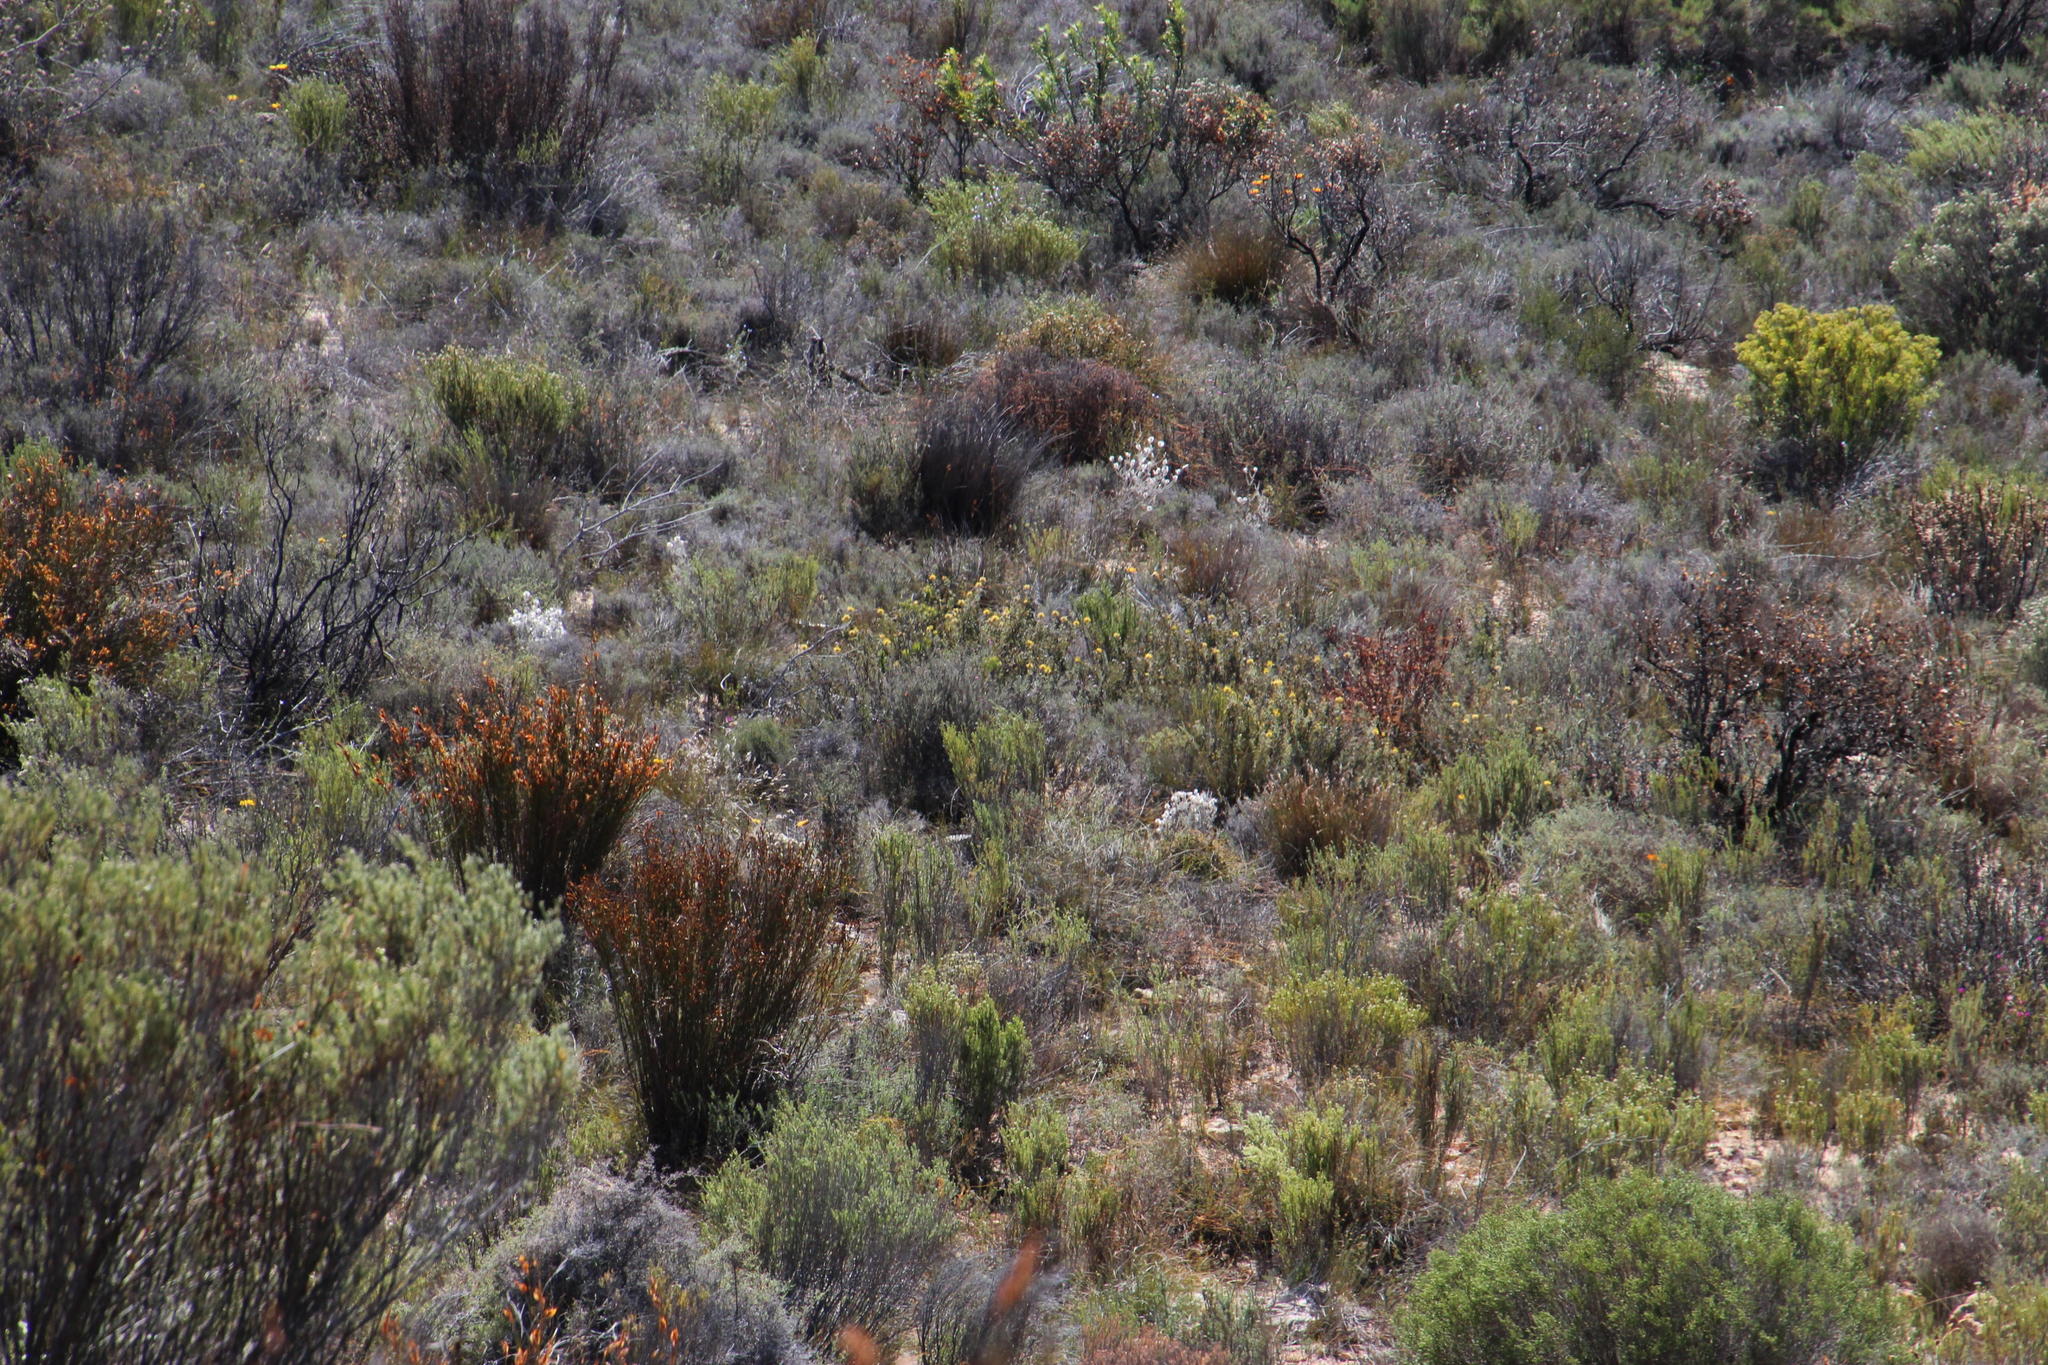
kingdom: Plantae
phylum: Tracheophyta
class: Magnoliopsida
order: Proteales
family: Proteaceae
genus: Serruria
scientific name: Serruria flava
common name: Spiderhead
